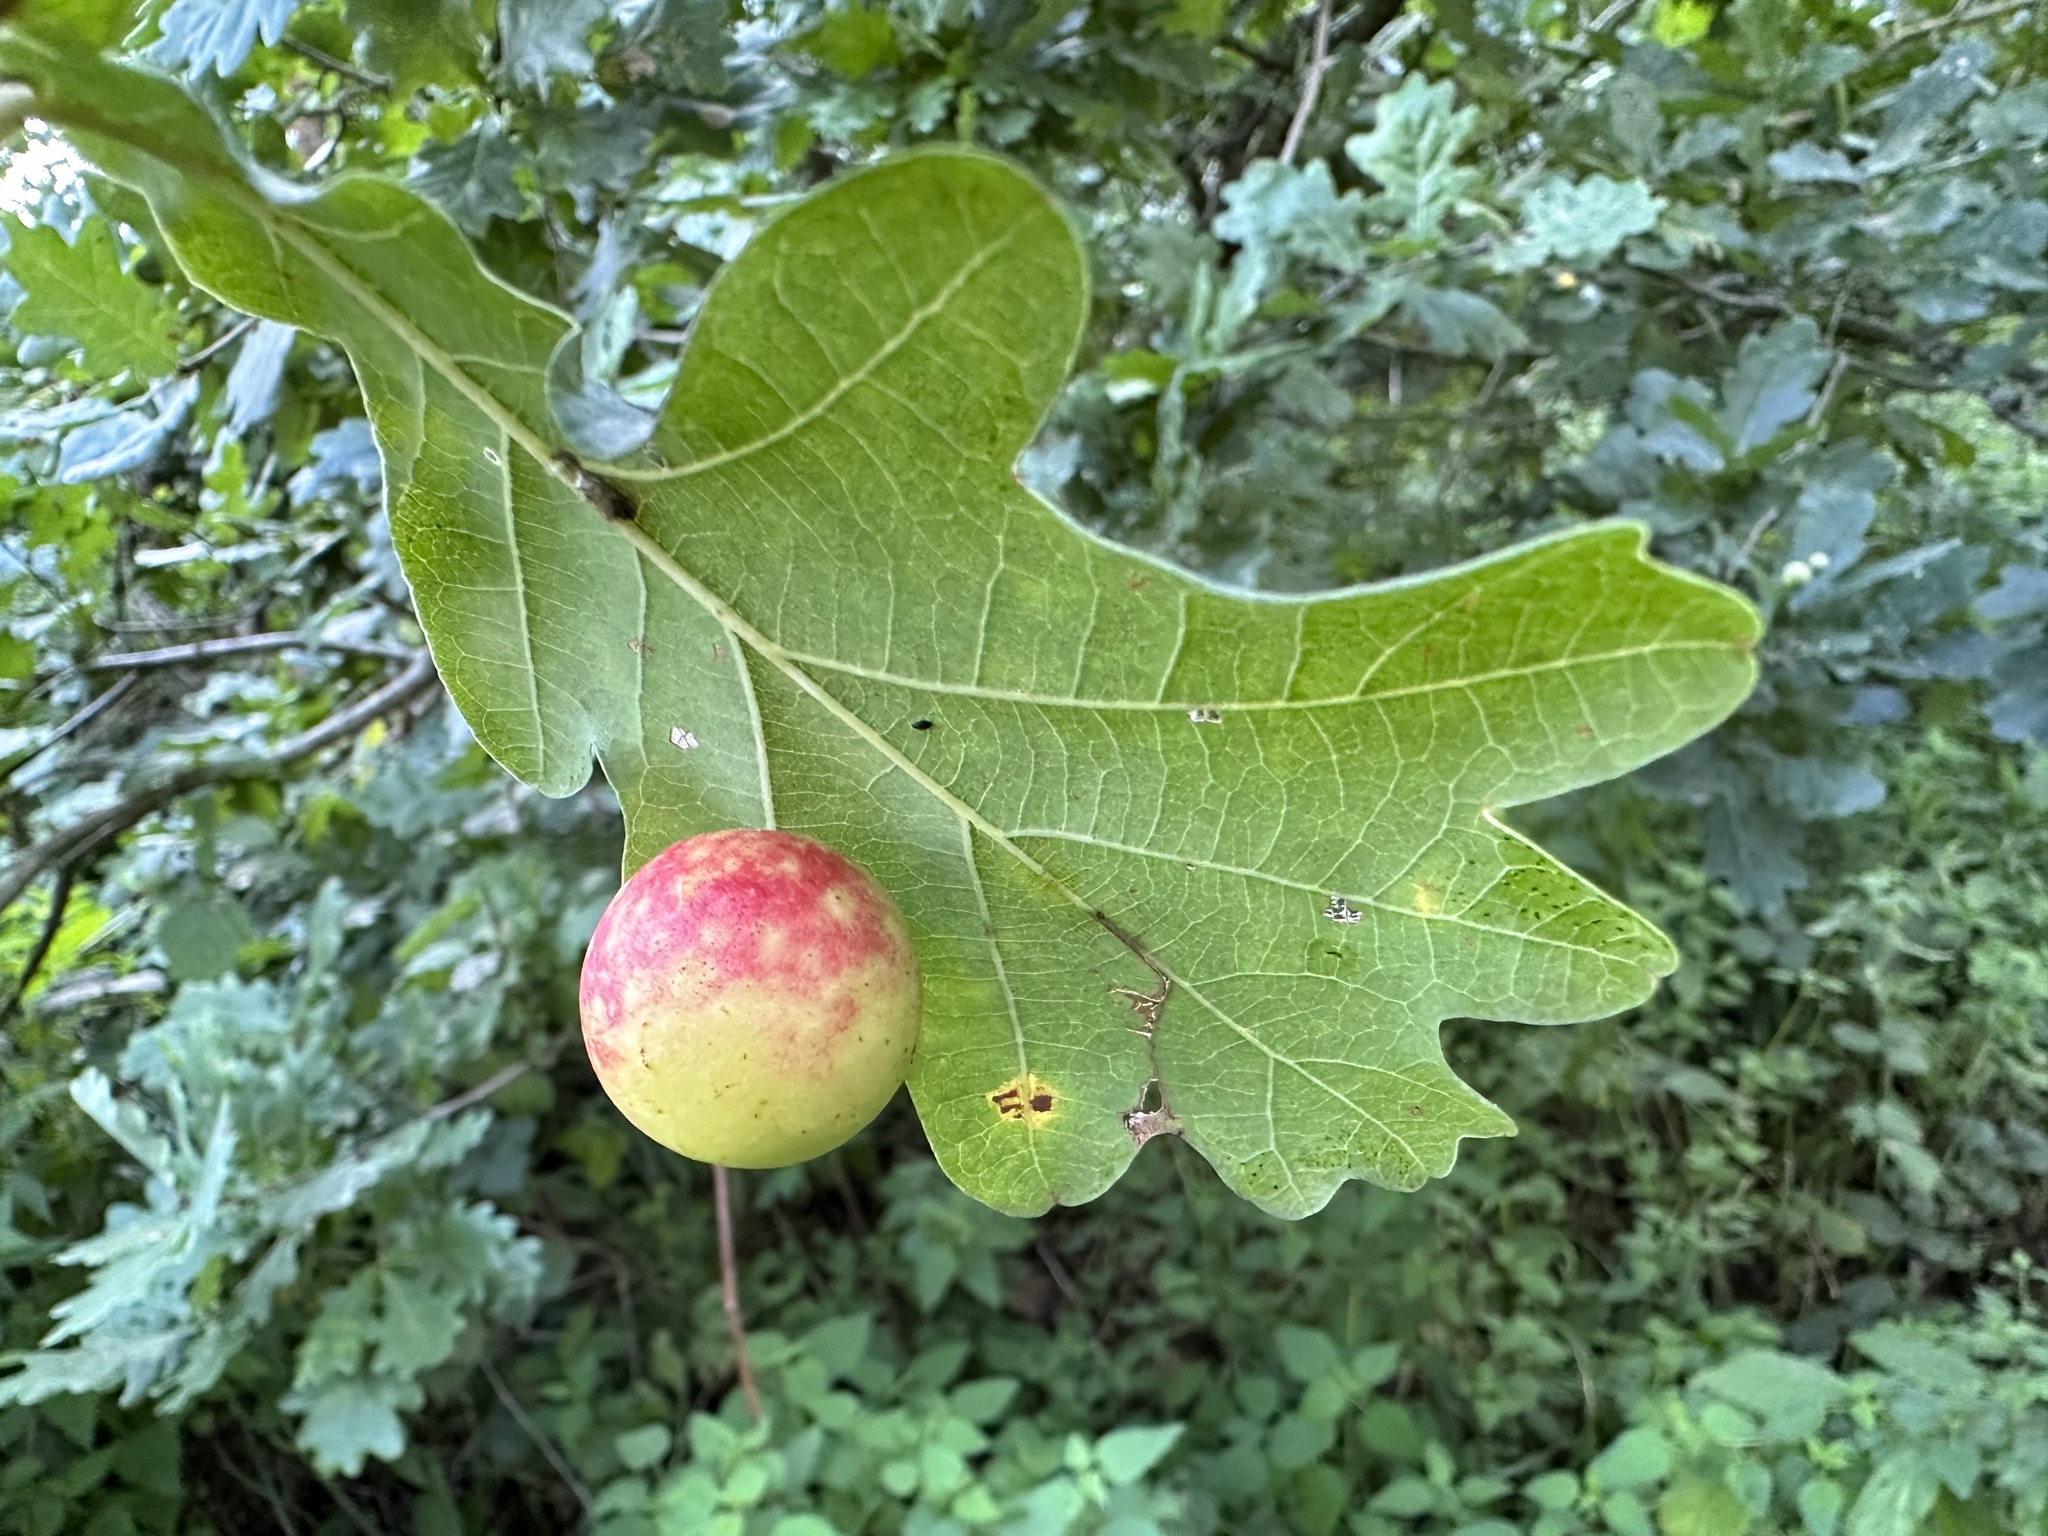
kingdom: Animalia
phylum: Arthropoda
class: Insecta
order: Hymenoptera
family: Cynipidae
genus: Cynips
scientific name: Cynips quercusfolii
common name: Cherry gall
